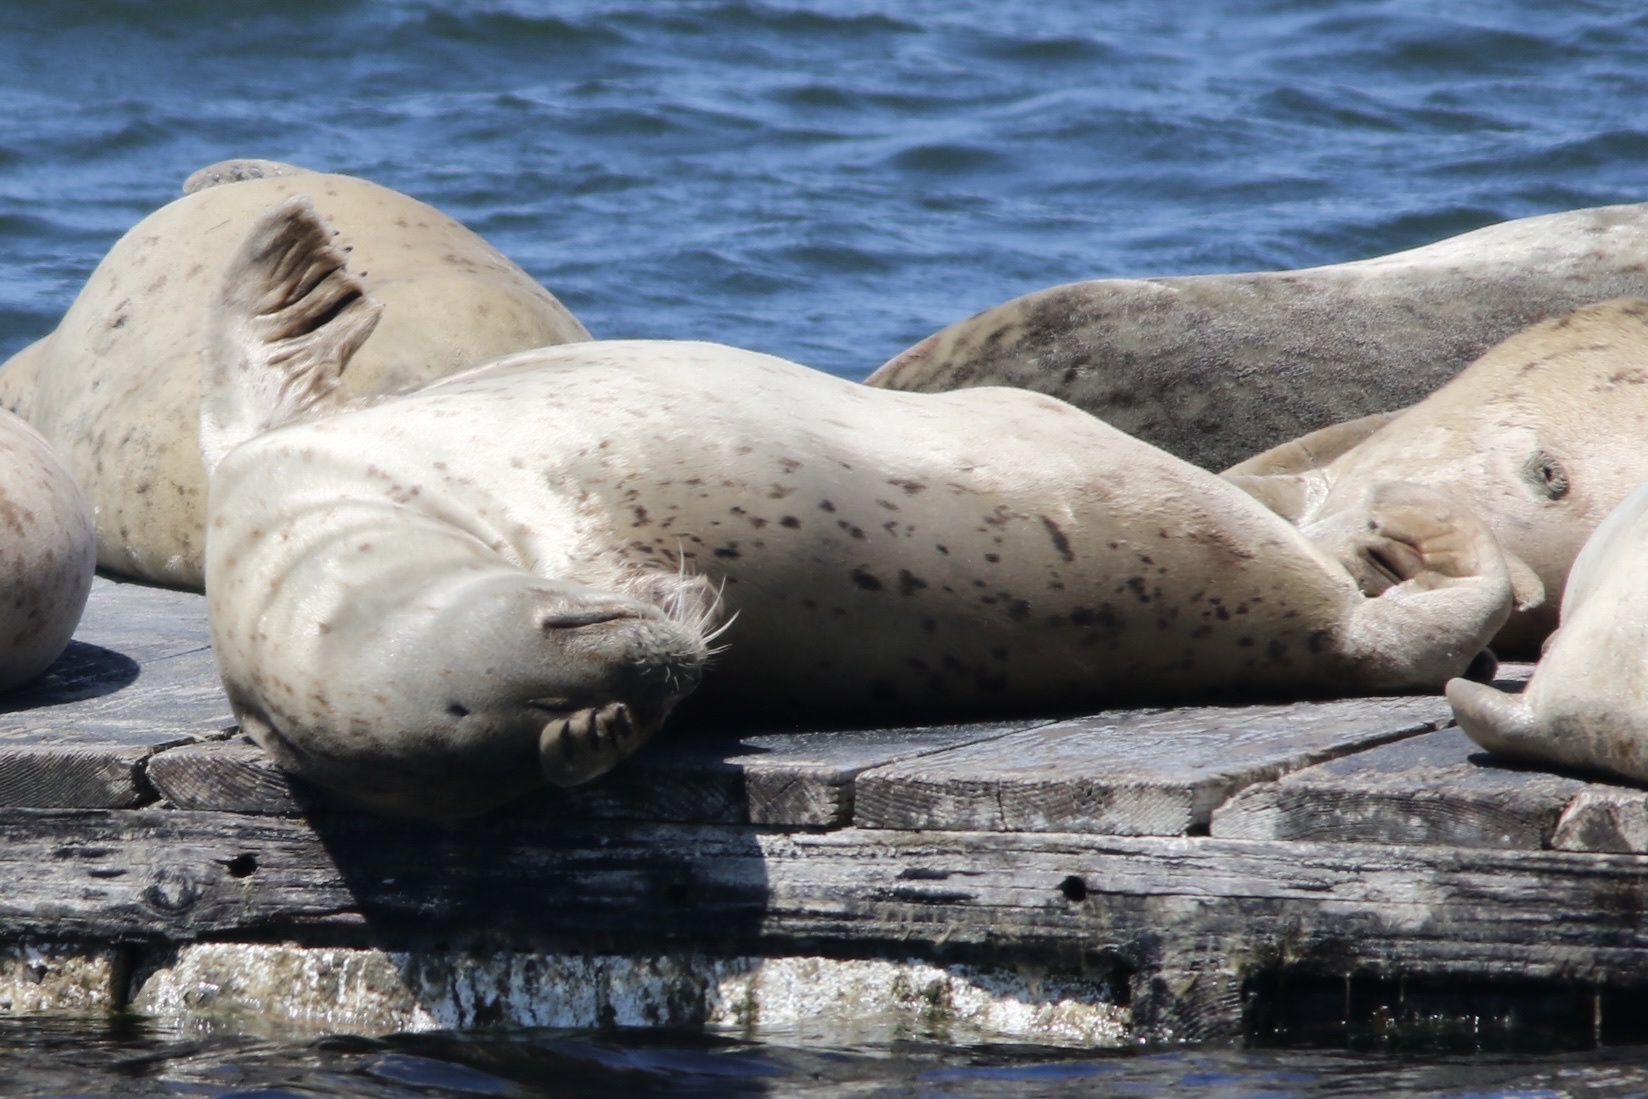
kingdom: Animalia
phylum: Chordata
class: Mammalia
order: Carnivora
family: Phocidae
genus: Phoca
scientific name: Phoca vitulina
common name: Harbor seal
